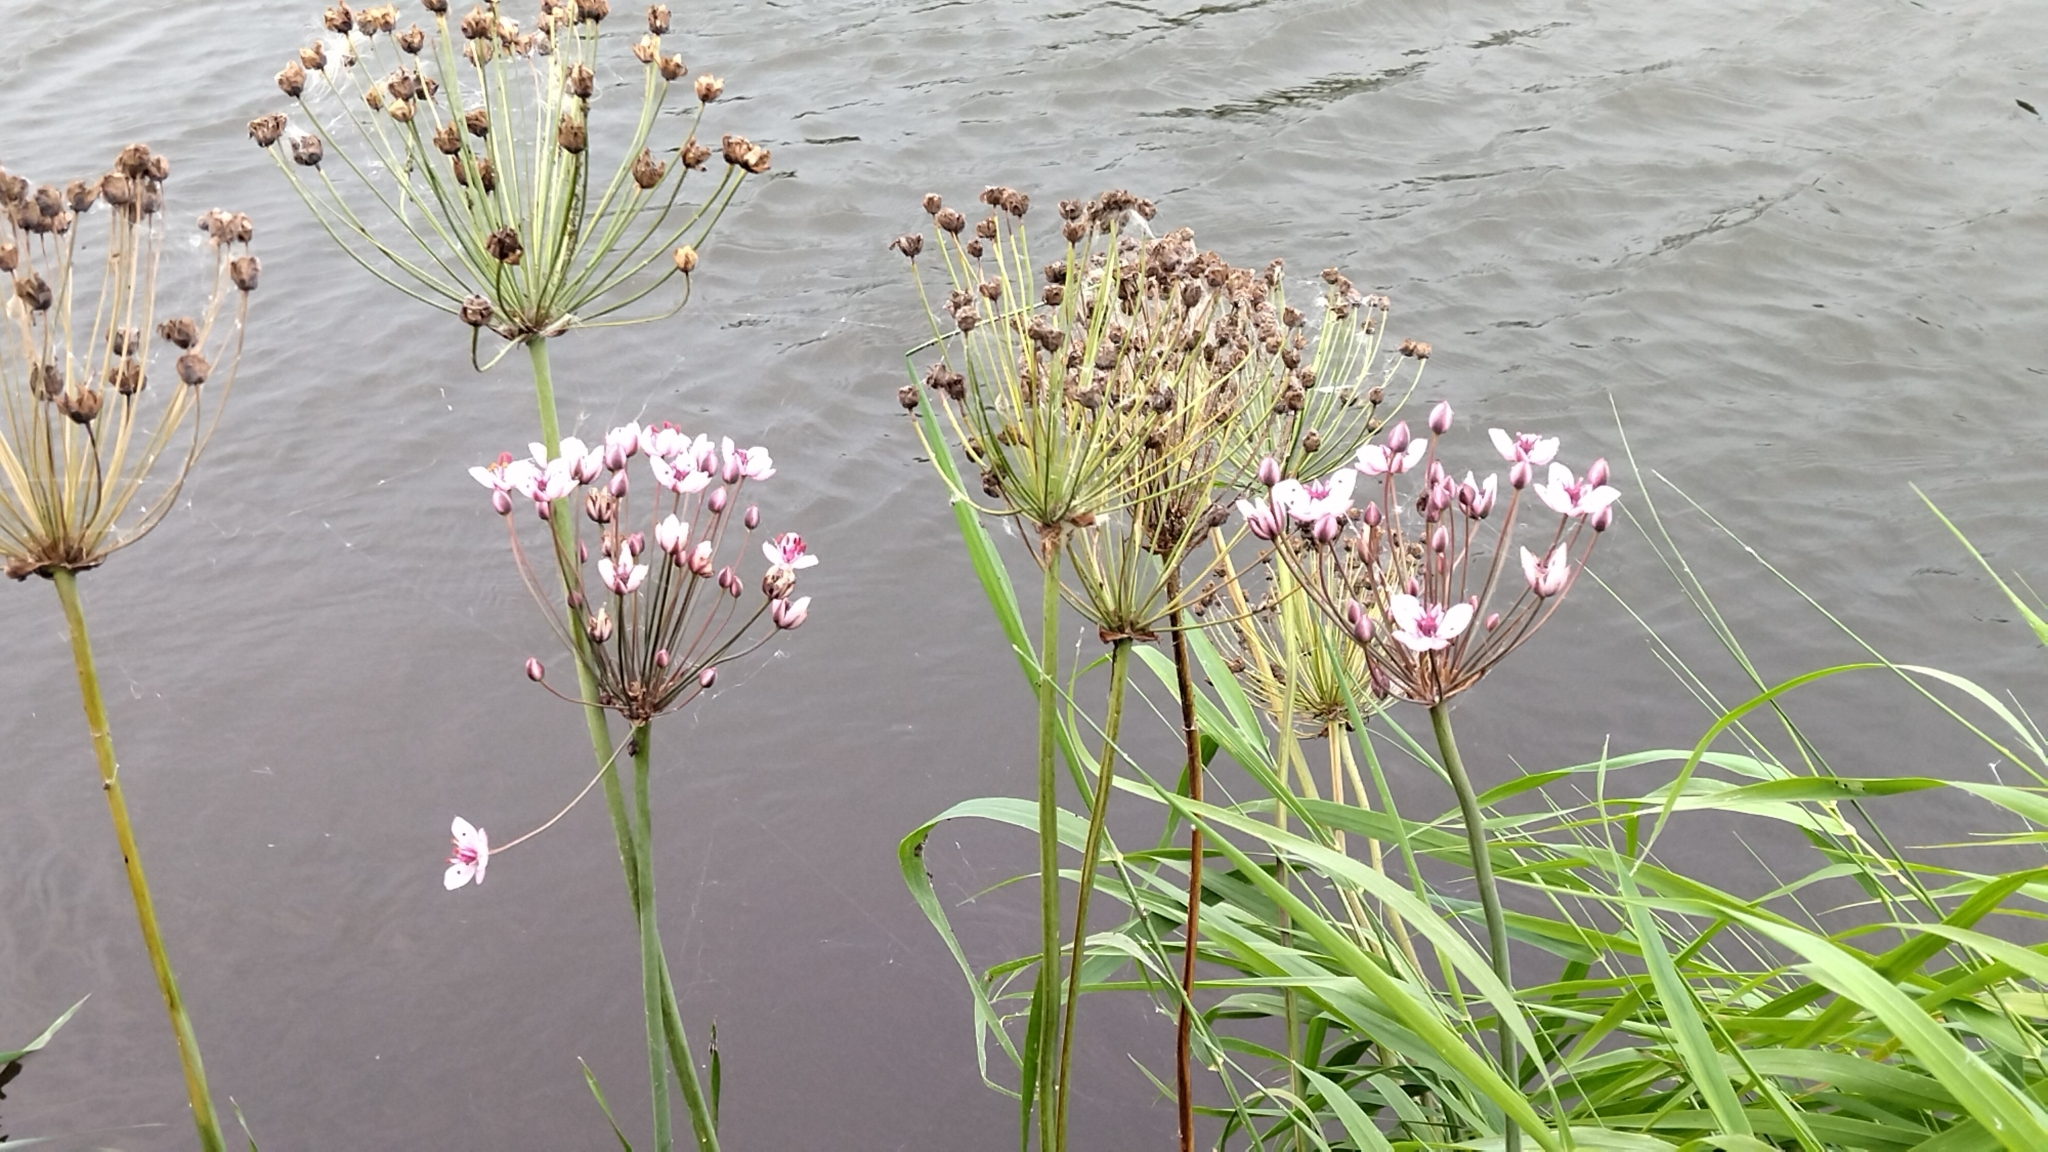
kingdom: Plantae
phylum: Tracheophyta
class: Liliopsida
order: Alismatales
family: Butomaceae
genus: Butomus
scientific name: Butomus umbellatus
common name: Flowering-rush
